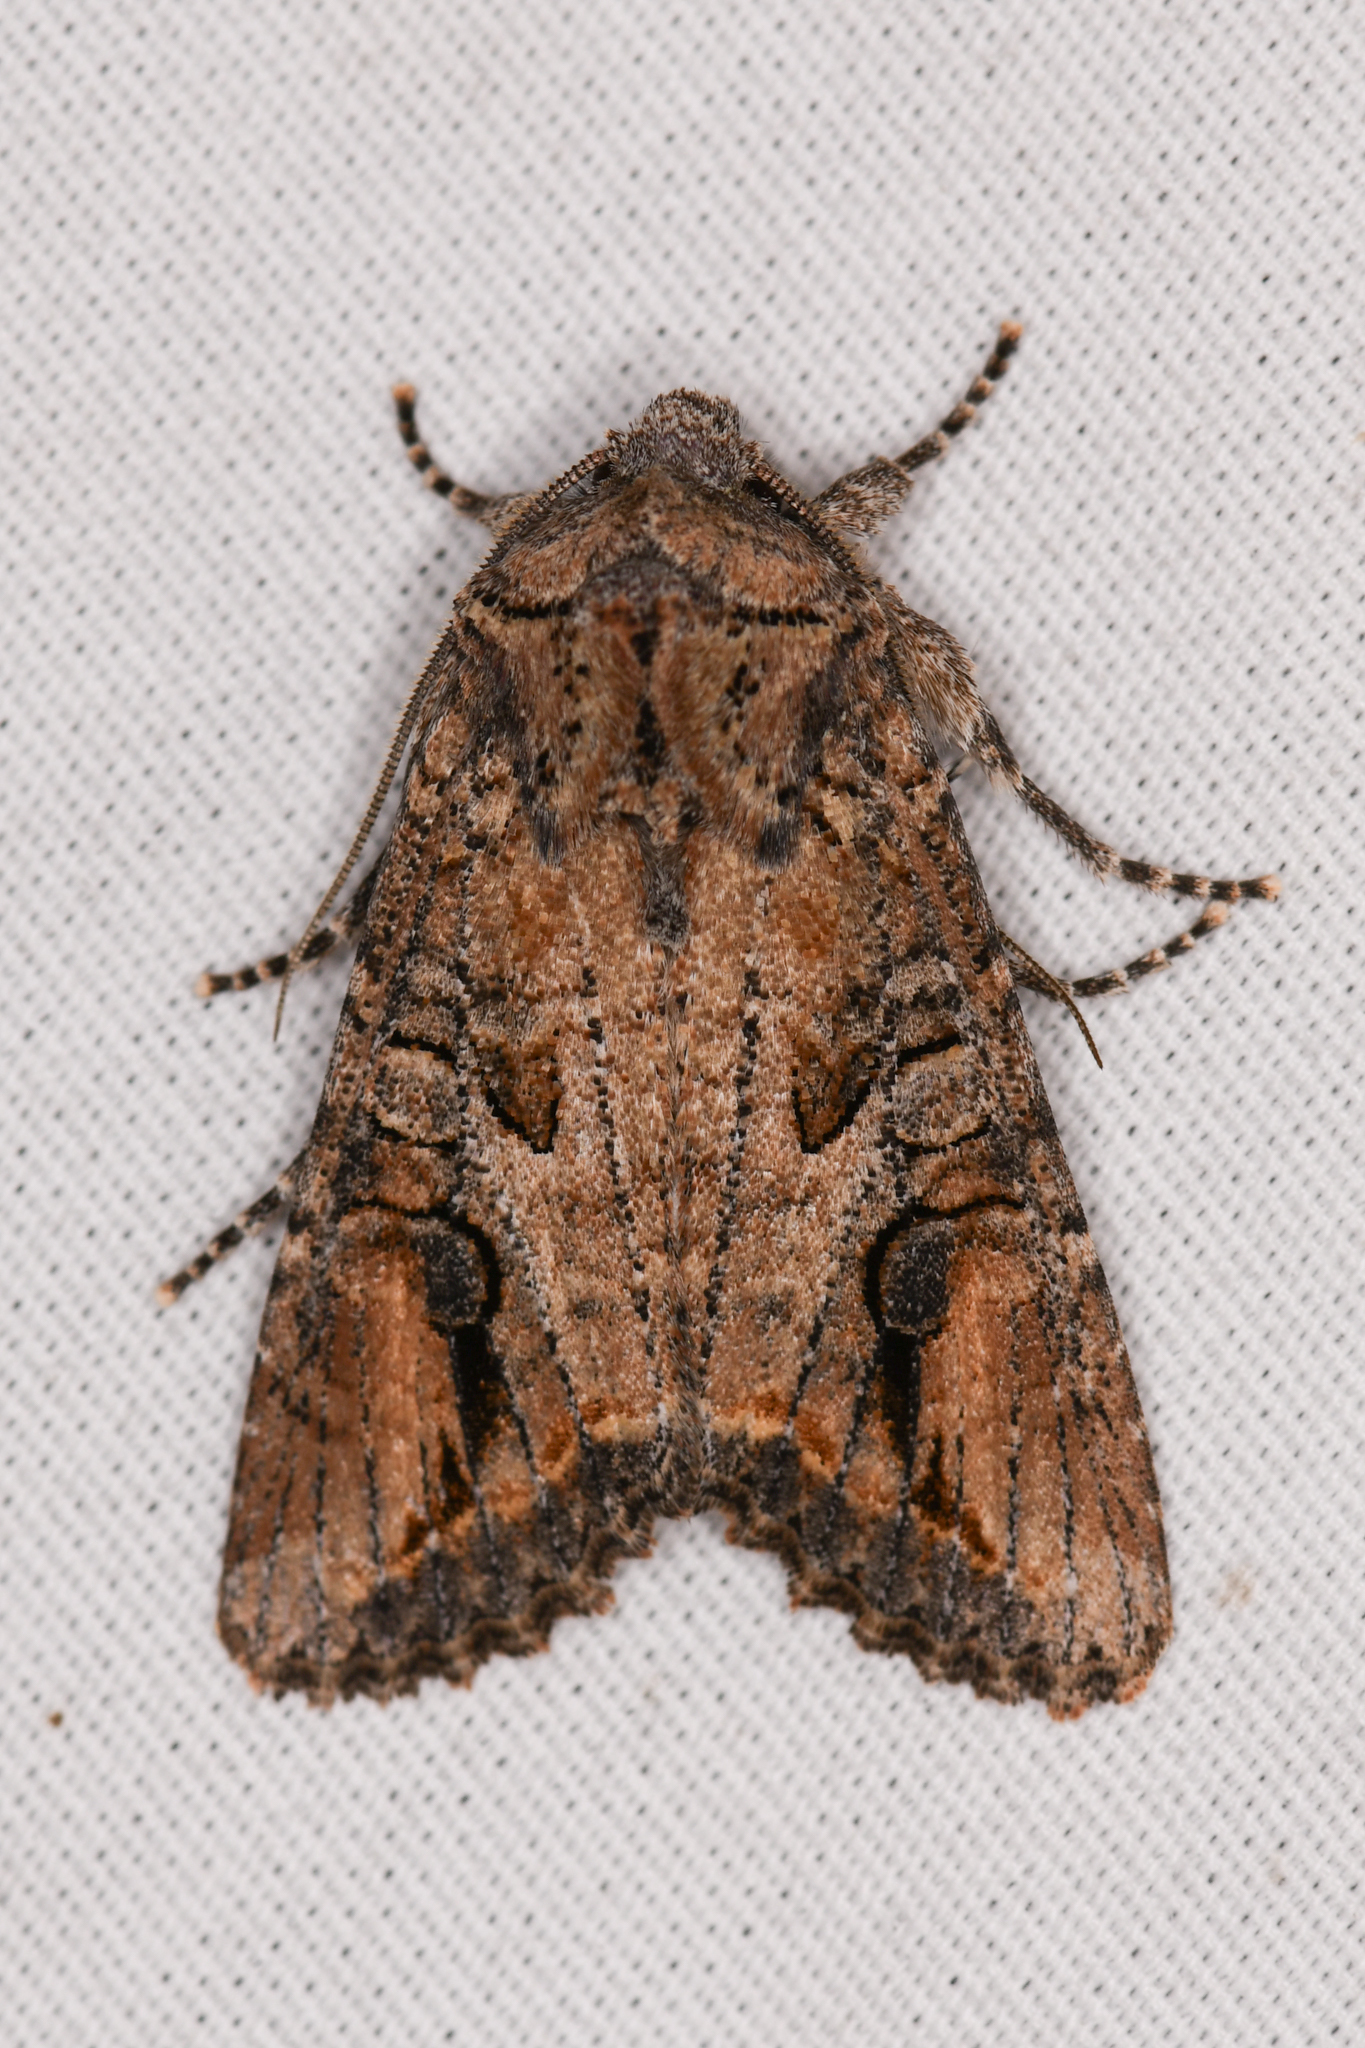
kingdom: Animalia
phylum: Arthropoda
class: Insecta
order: Lepidoptera
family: Noctuidae
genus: Egira
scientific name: Egira perlubens
